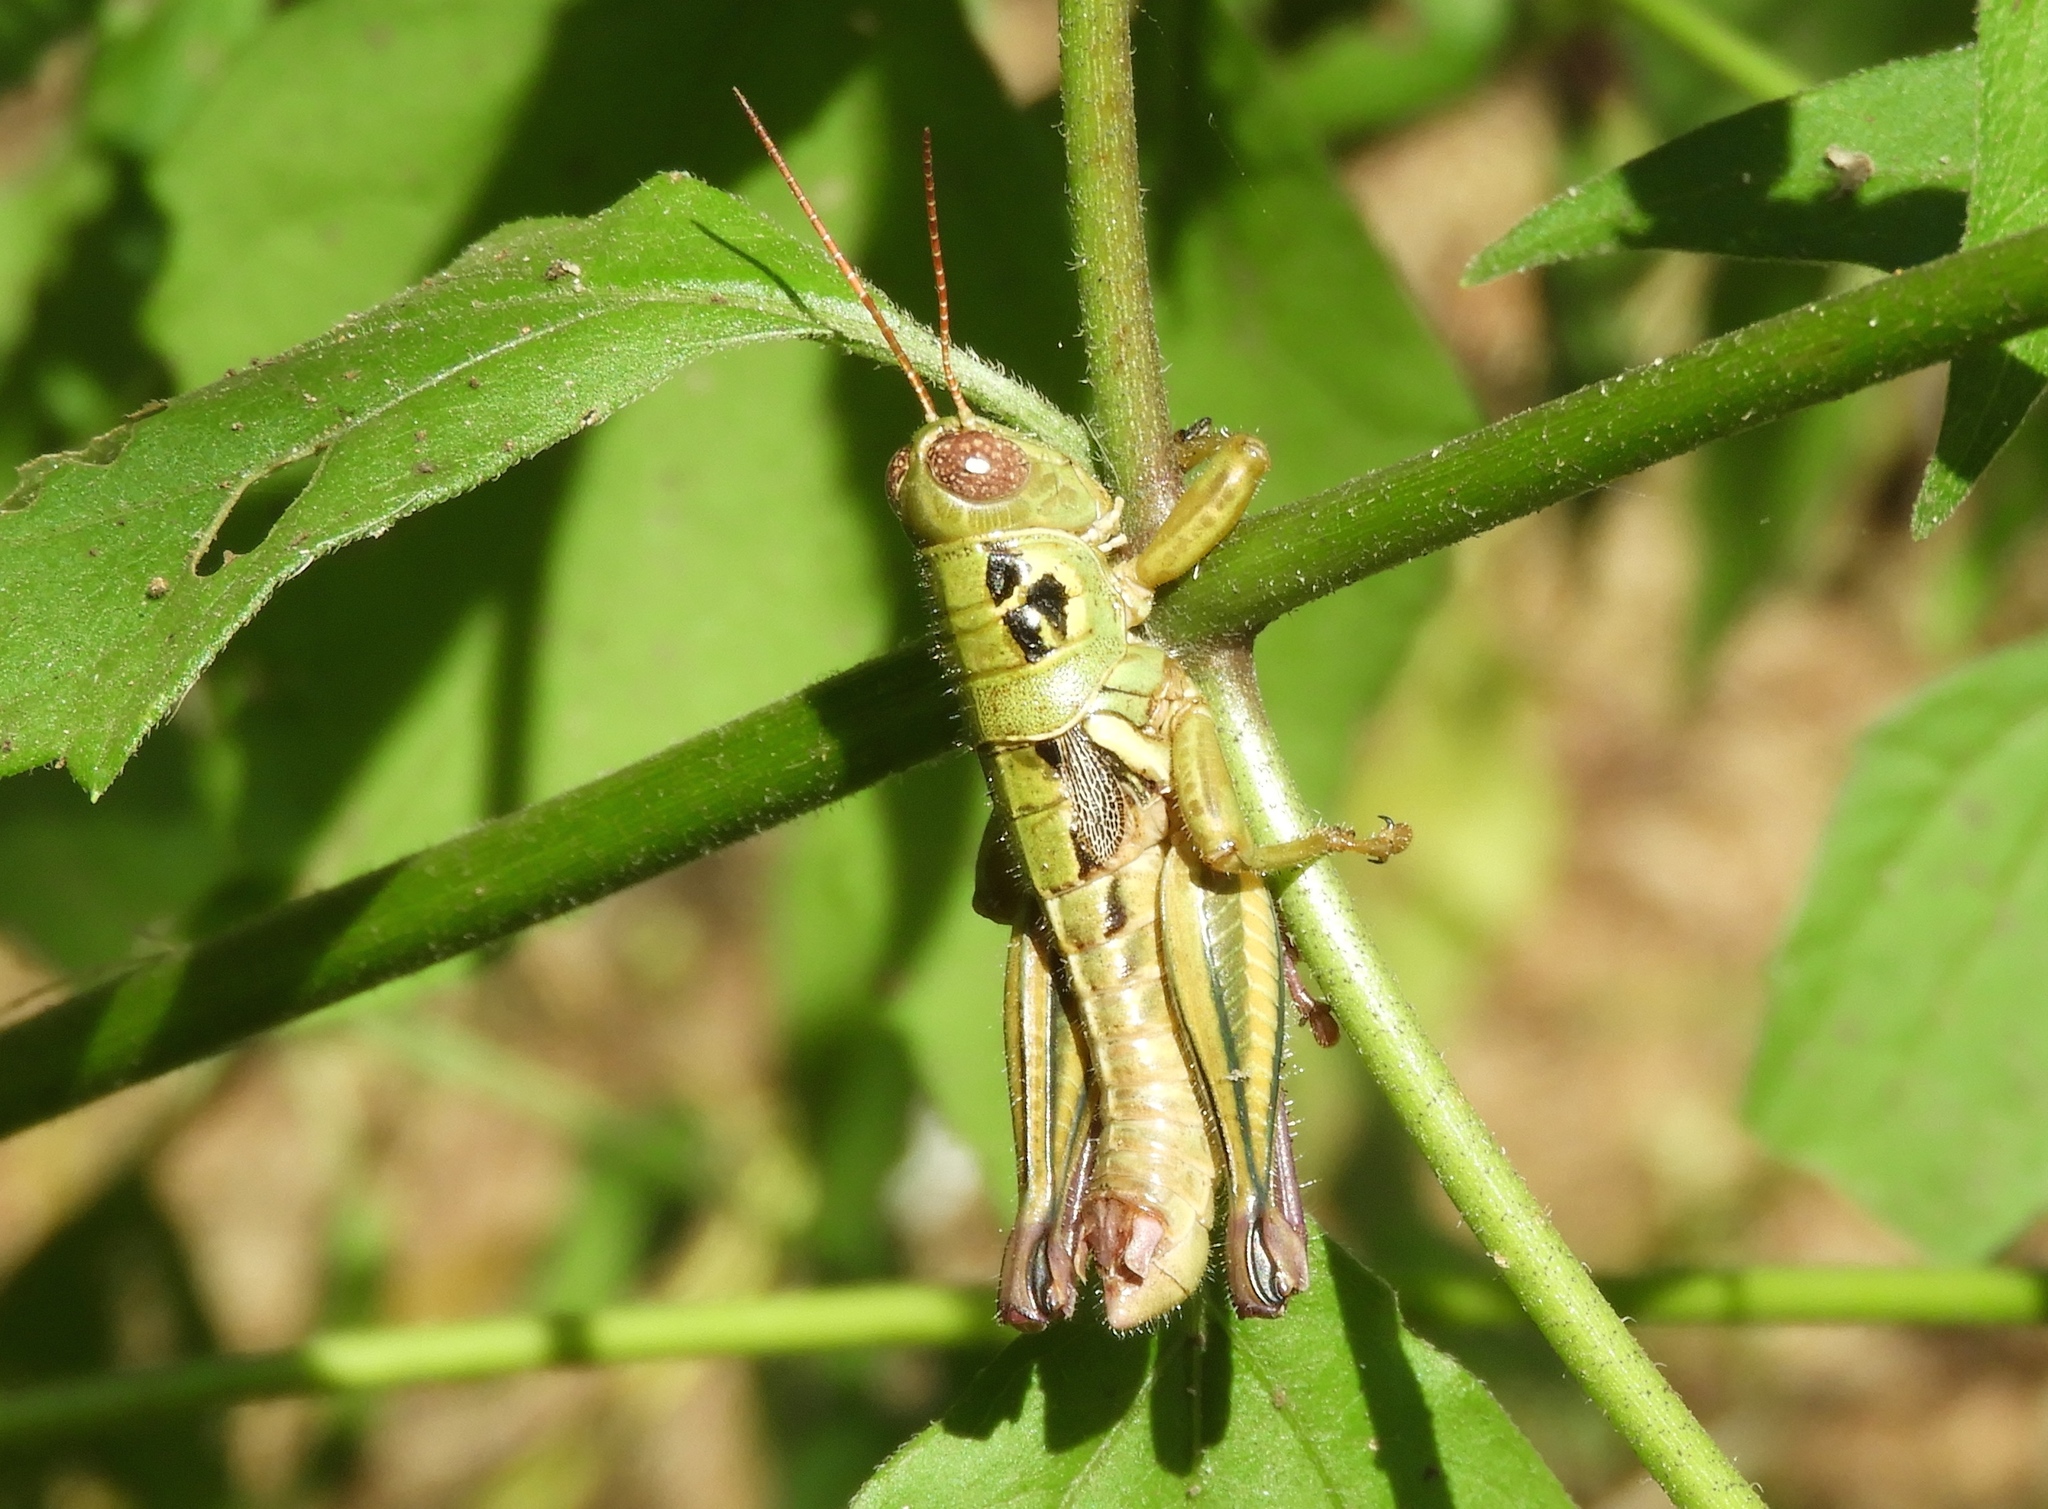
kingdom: Animalia
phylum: Arthropoda
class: Insecta
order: Orthoptera
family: Acrididae
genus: Barytettix
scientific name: Barytettix
